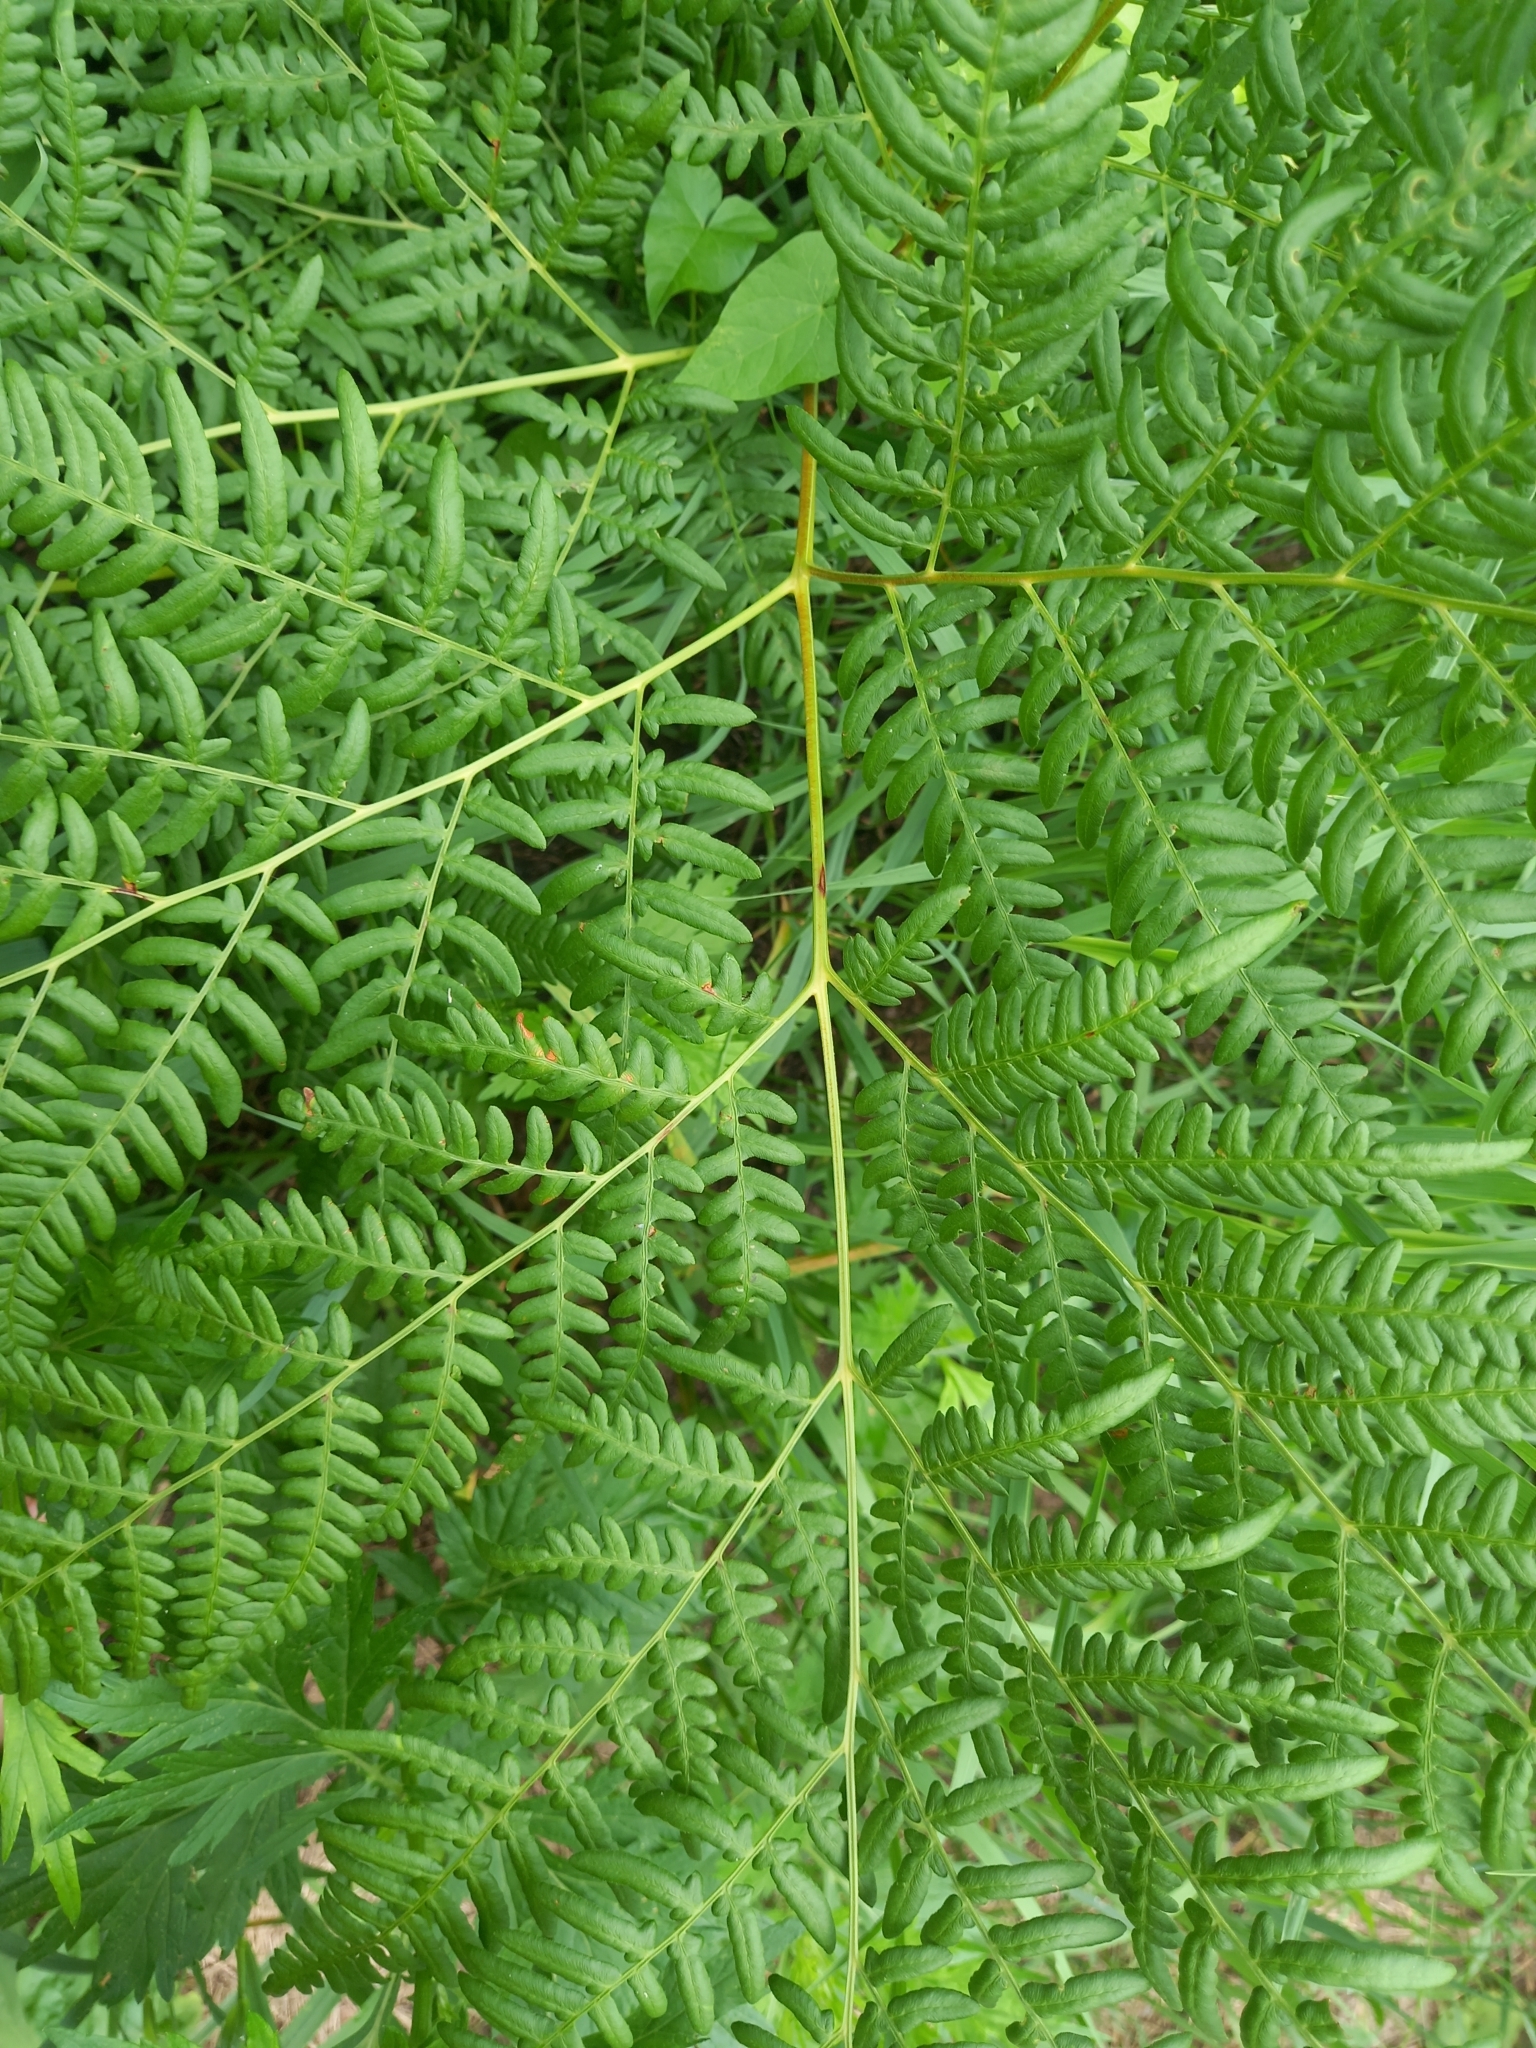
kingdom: Plantae
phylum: Tracheophyta
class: Polypodiopsida
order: Polypodiales
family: Dennstaedtiaceae
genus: Pteridium
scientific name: Pteridium aquilinum
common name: Bracken
